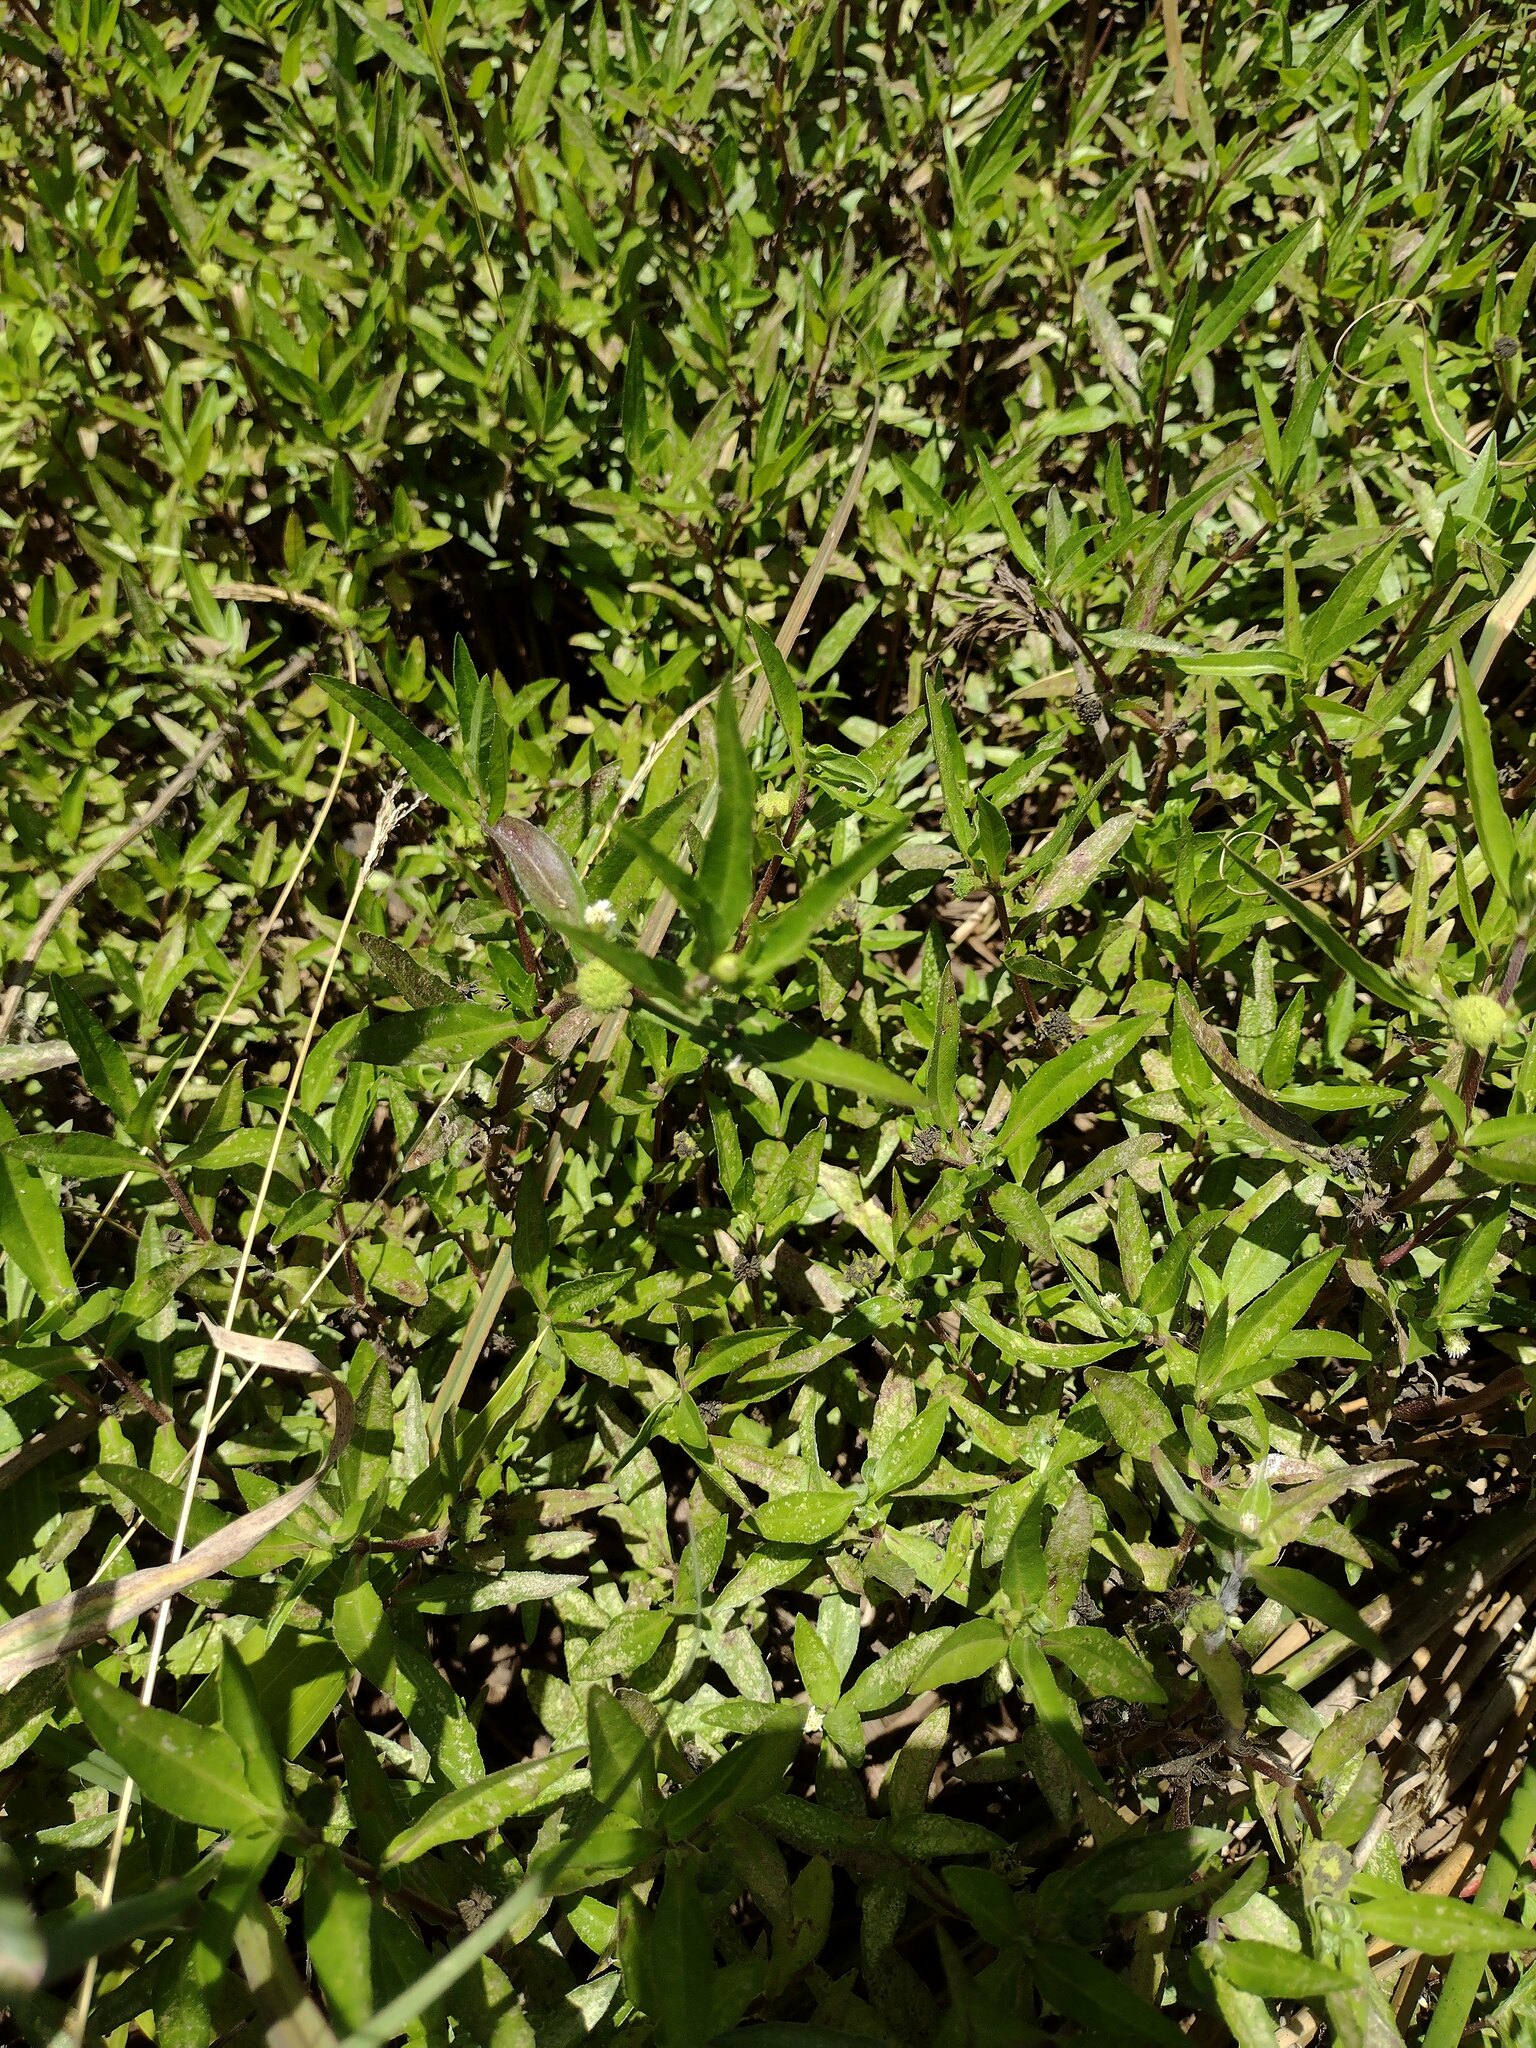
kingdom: Plantae
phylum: Tracheophyta
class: Magnoliopsida
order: Asterales
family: Asteraceae
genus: Eclipta
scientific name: Eclipta prostrata
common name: False daisy
